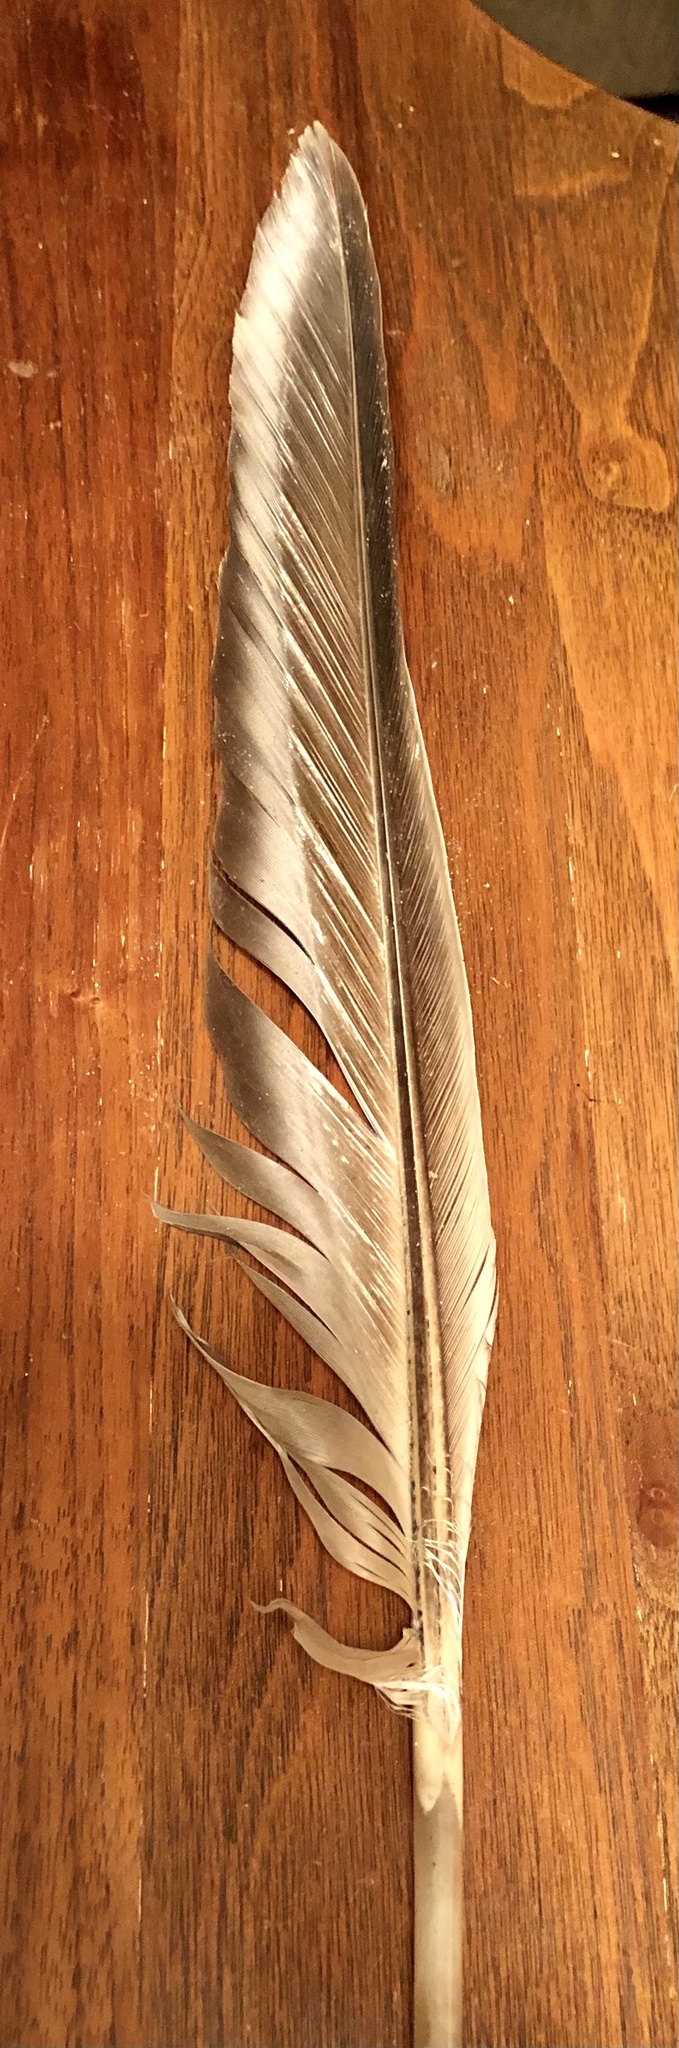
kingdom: Animalia
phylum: Chordata
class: Aves
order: Anseriformes
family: Anatidae
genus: Branta
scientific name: Branta canadensis
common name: Canada goose
